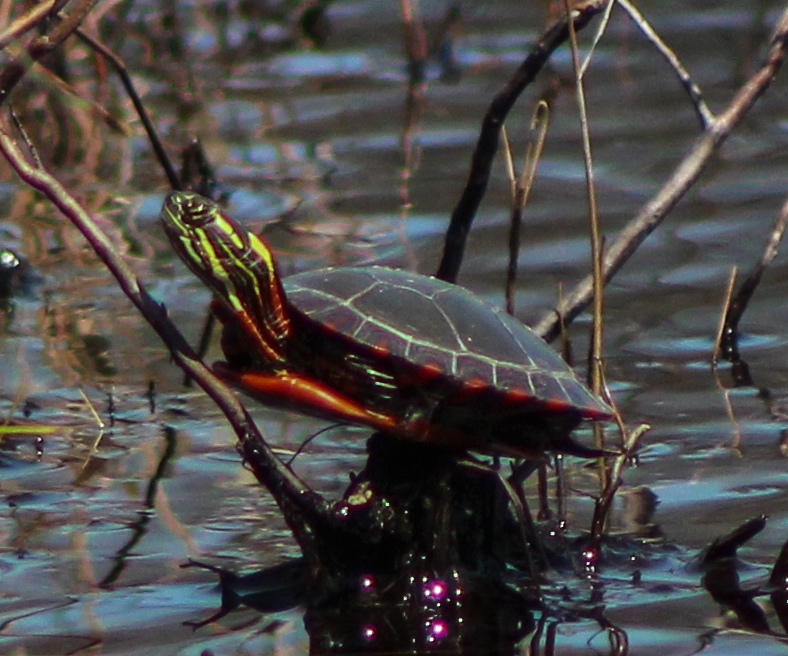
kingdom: Animalia
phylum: Chordata
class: Testudines
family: Emydidae
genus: Chrysemys
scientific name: Chrysemys picta
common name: Painted turtle
